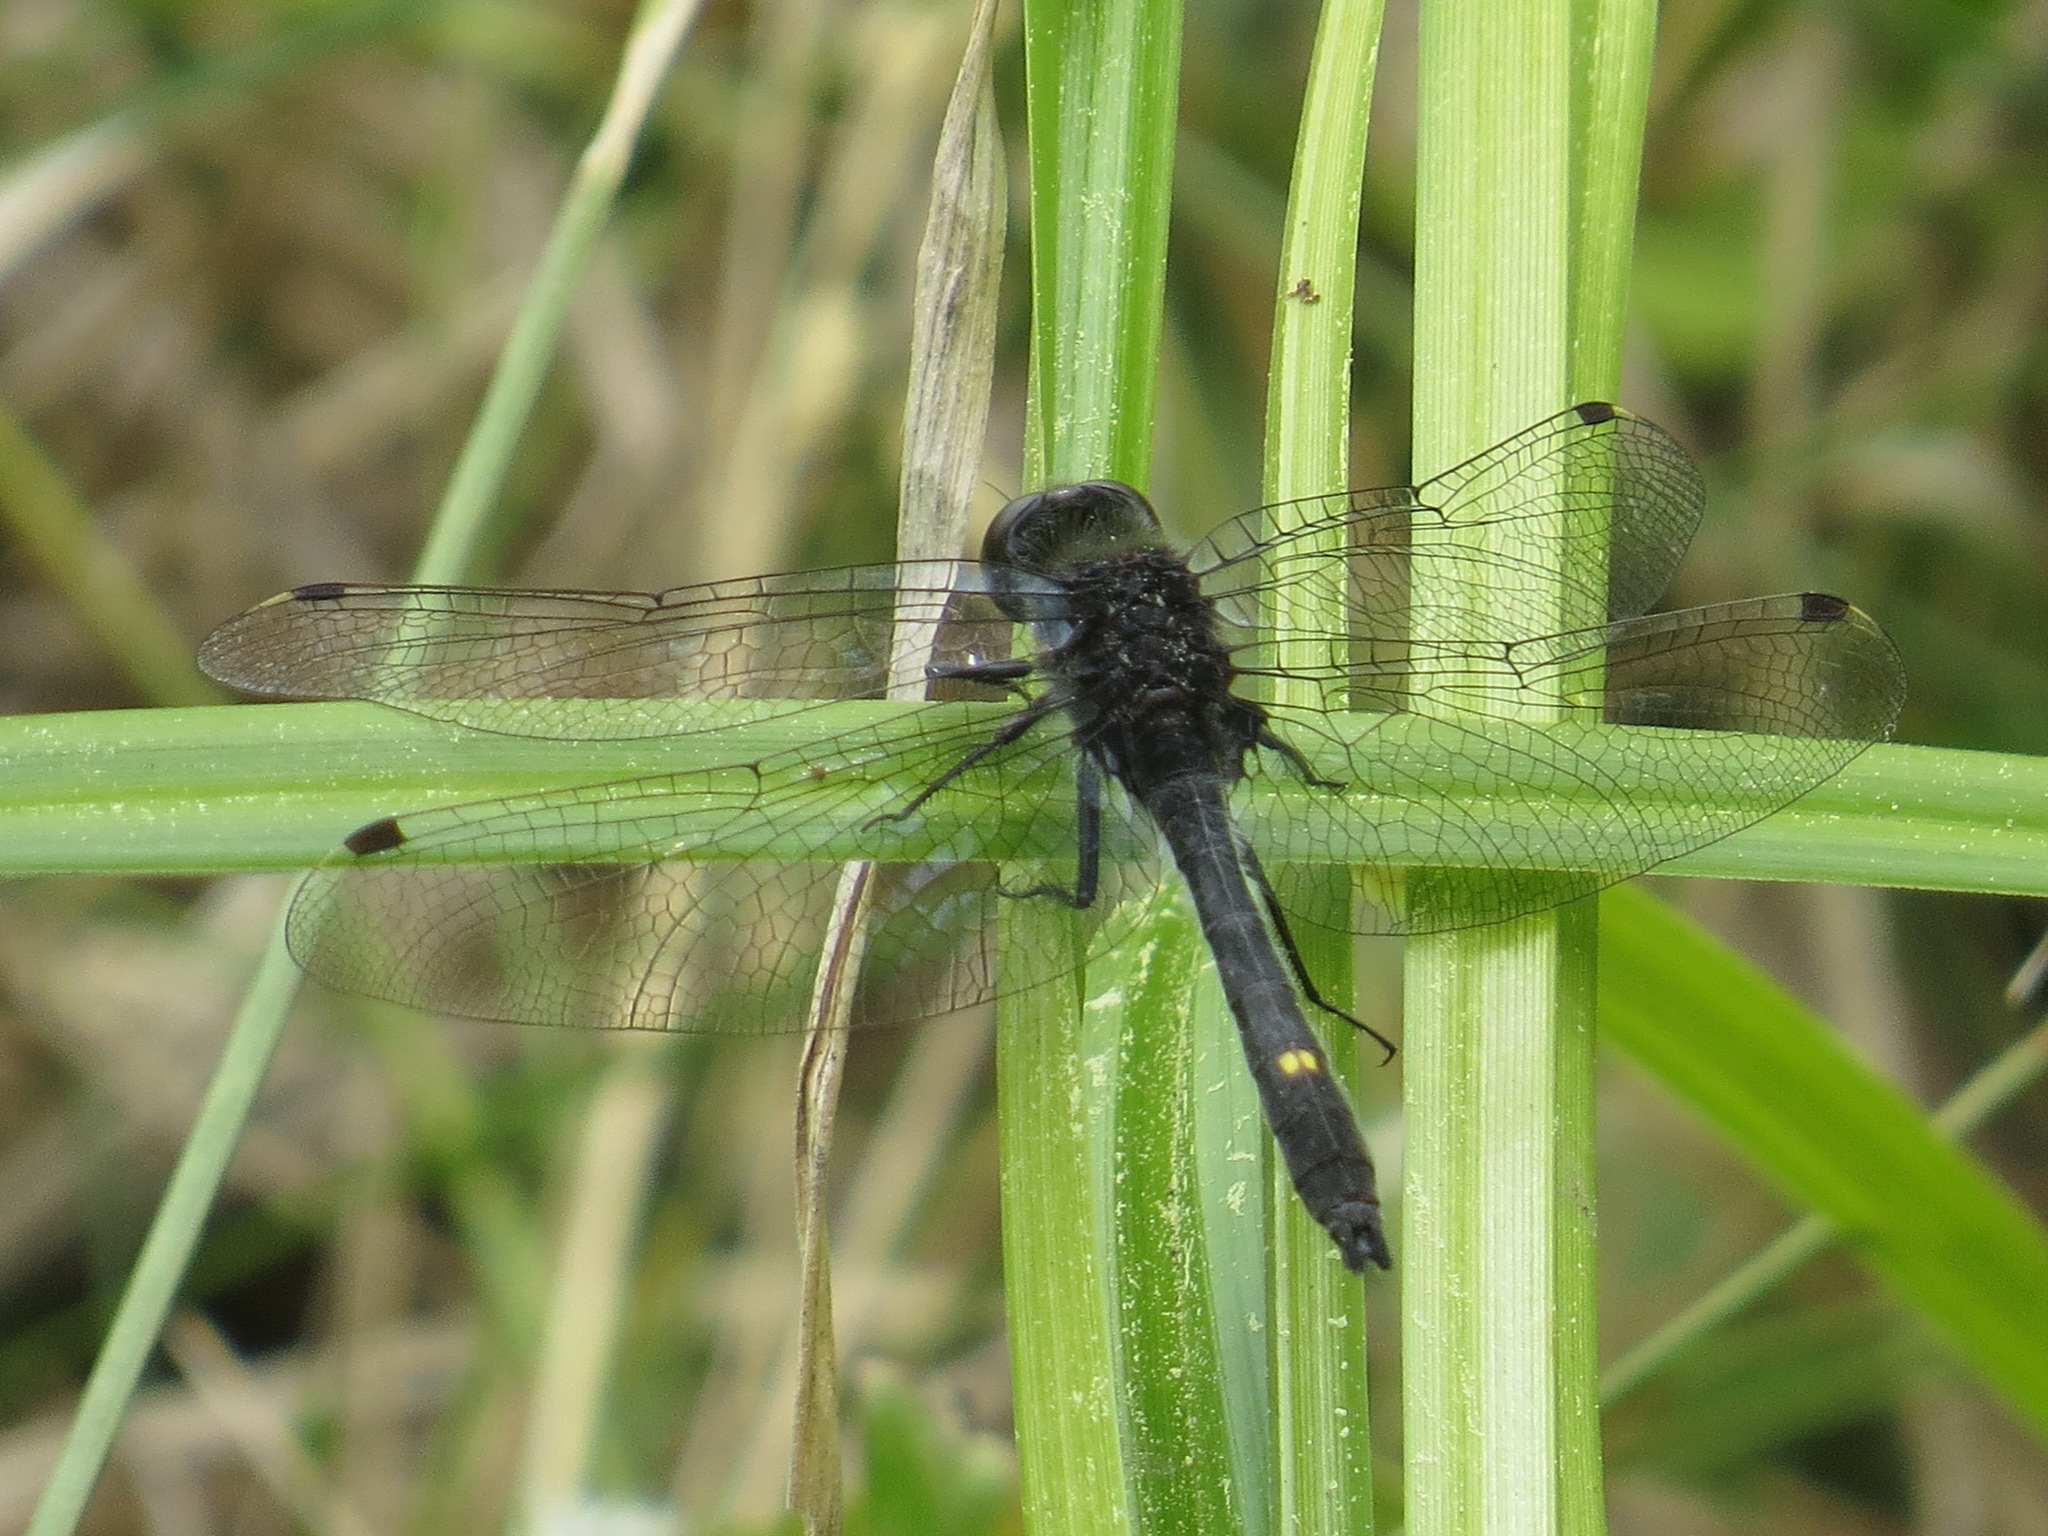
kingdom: Animalia
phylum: Arthropoda
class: Insecta
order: Odonata
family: Libellulidae
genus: Leucorrhinia
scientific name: Leucorrhinia intacta
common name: Dot-tailed whiteface
